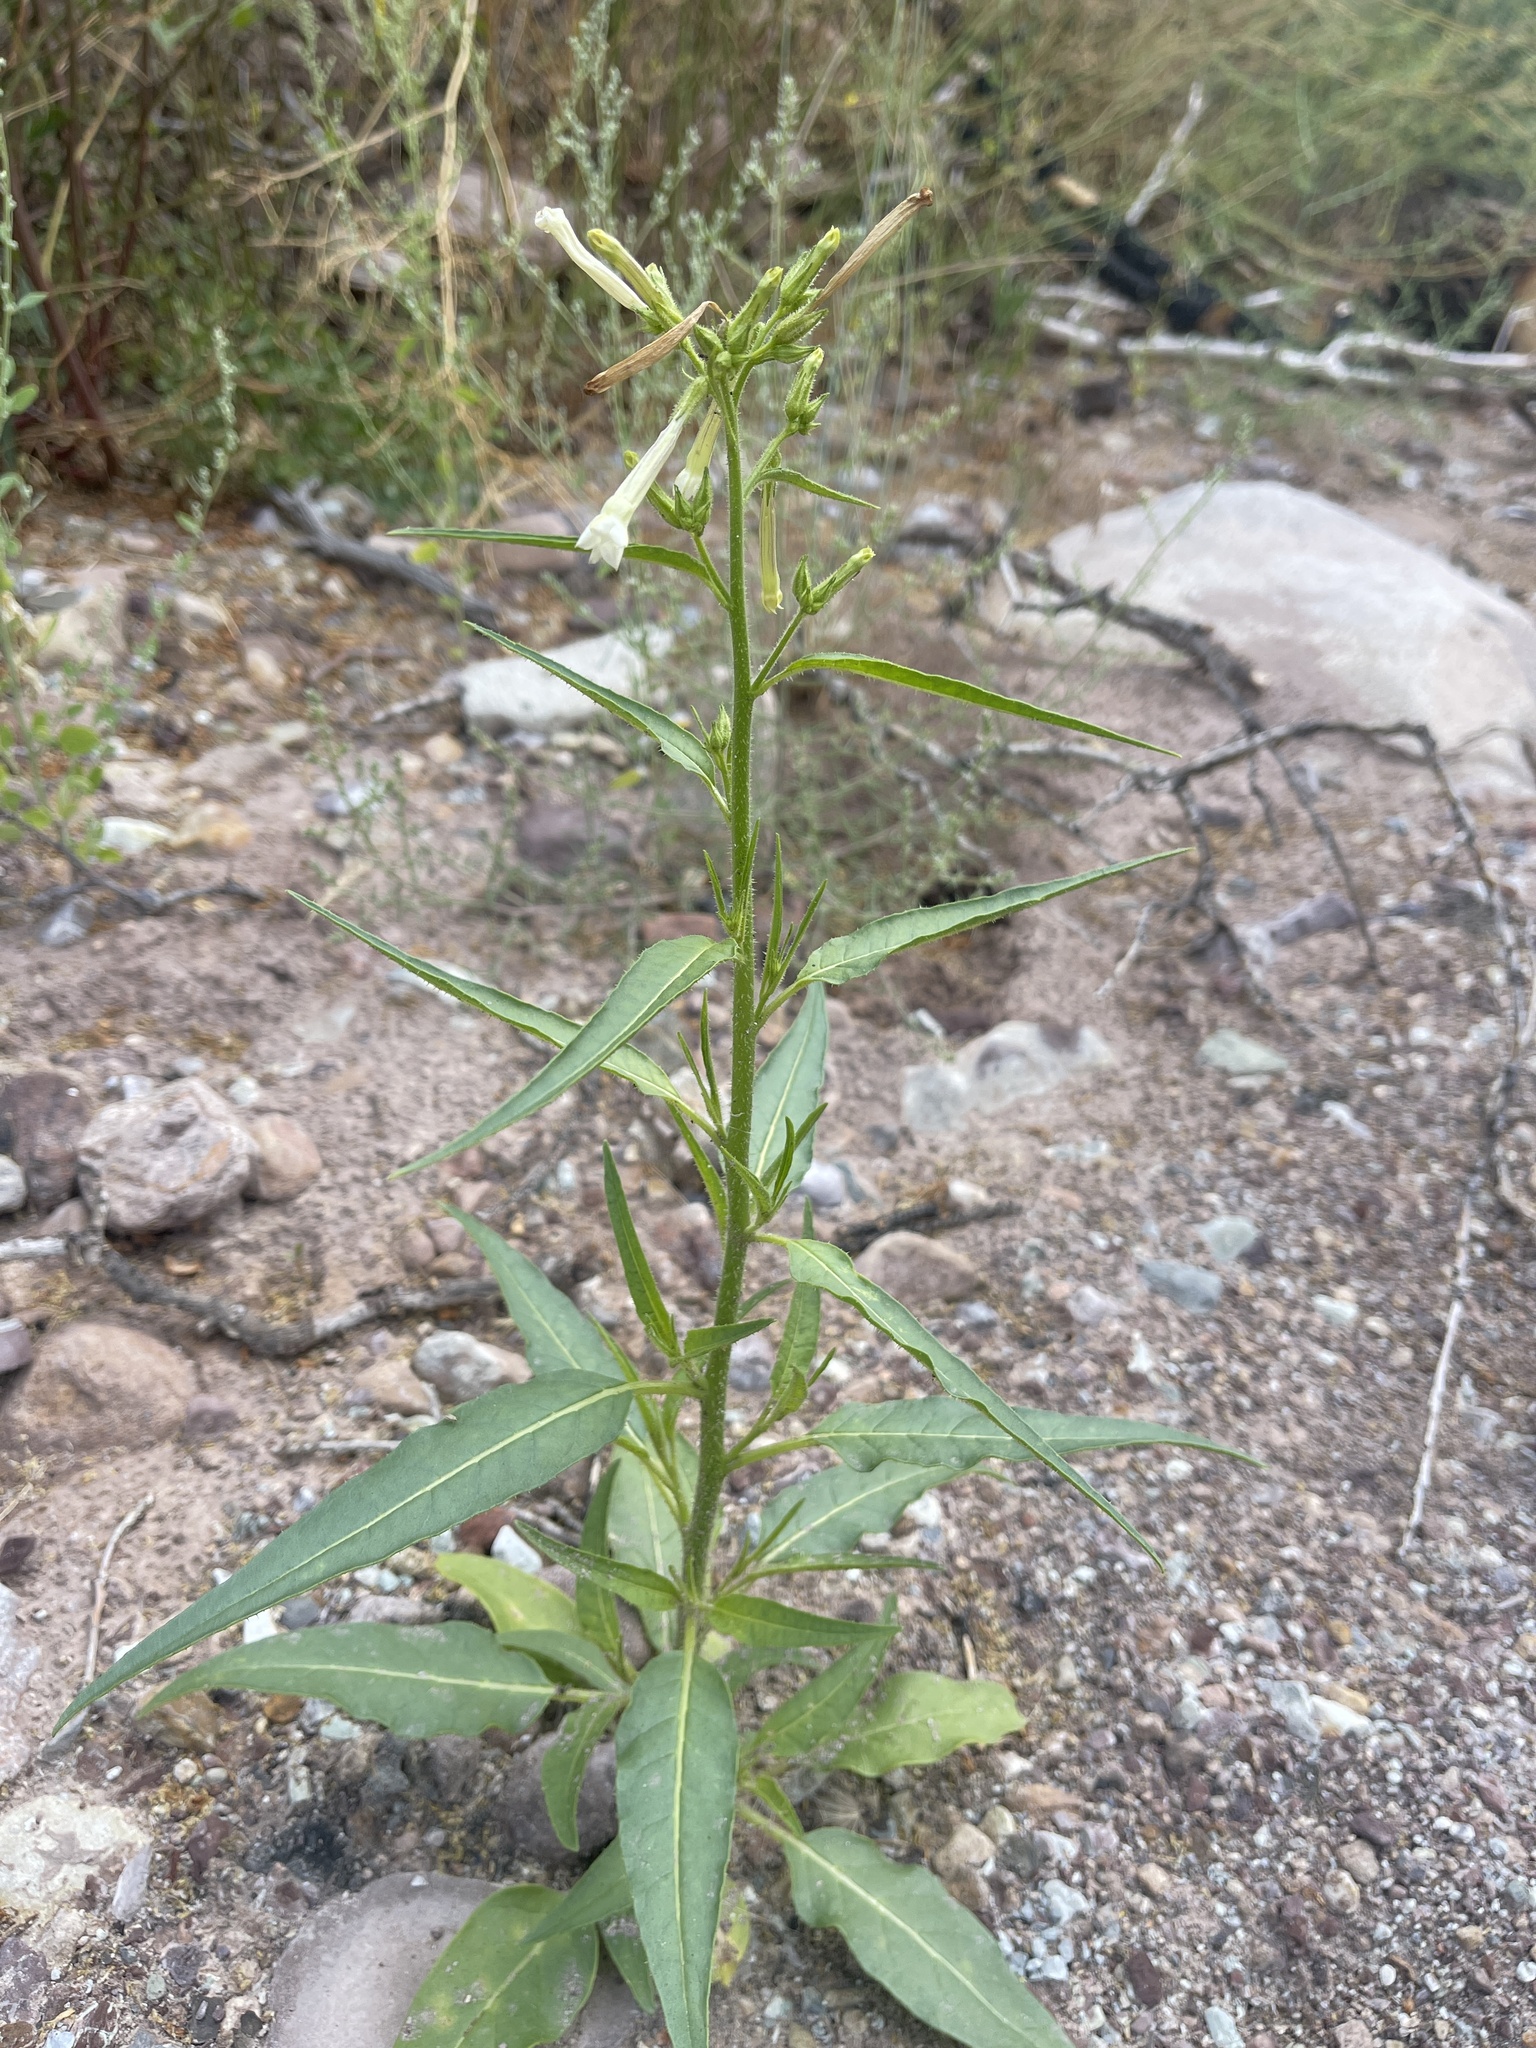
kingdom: Plantae
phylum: Tracheophyta
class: Magnoliopsida
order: Solanales
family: Solanaceae
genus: Nicotiana
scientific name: Nicotiana attenuata
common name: Coyote tobacco
